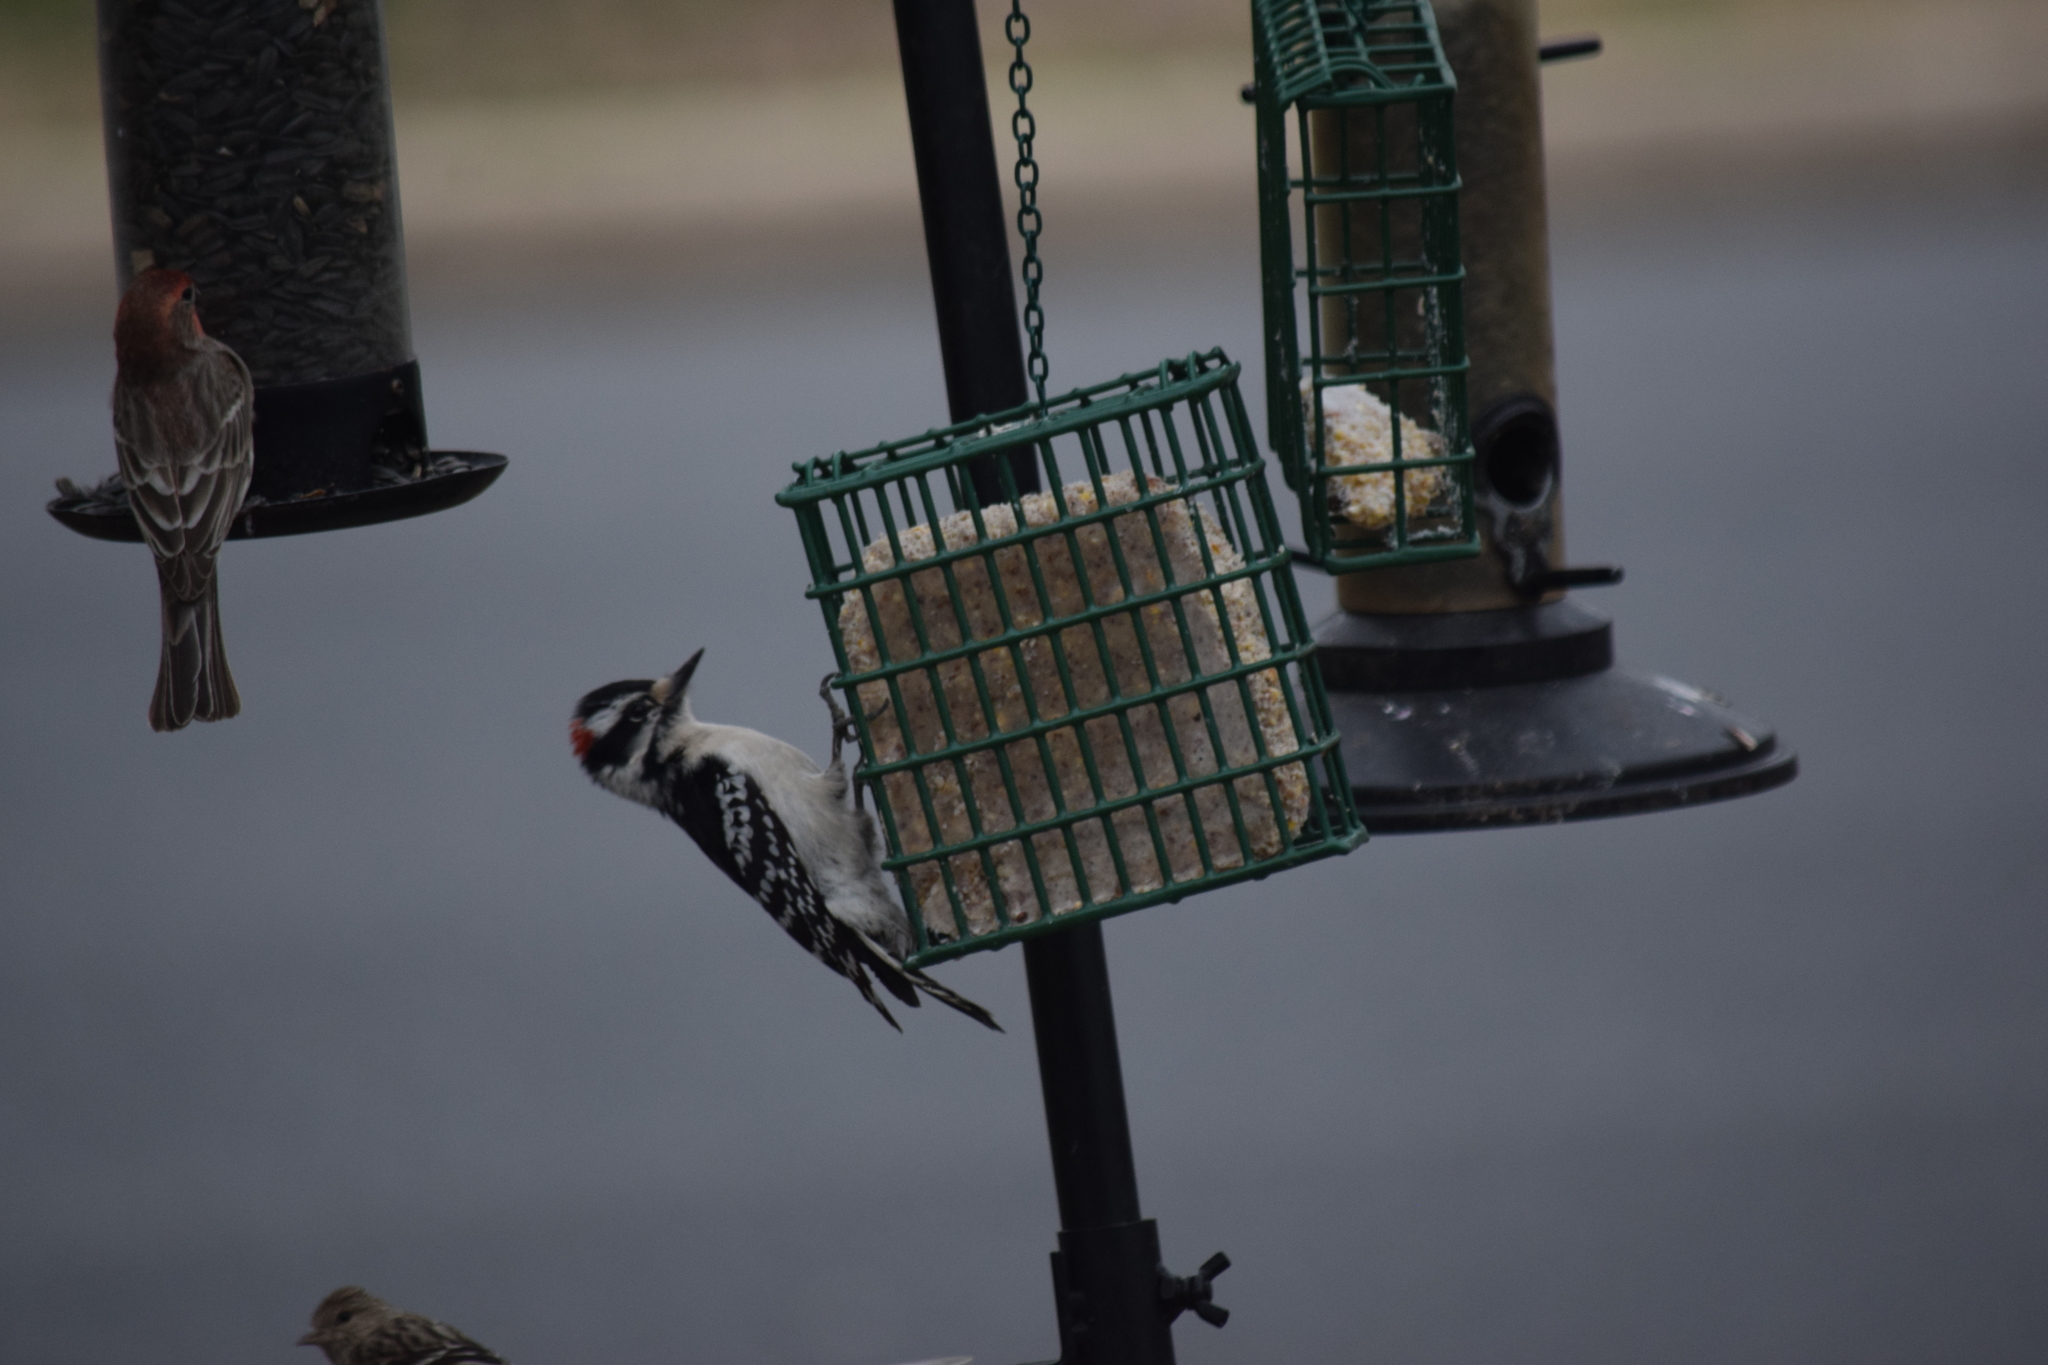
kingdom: Animalia
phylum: Chordata
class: Aves
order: Piciformes
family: Picidae
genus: Dryobates
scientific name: Dryobates pubescens
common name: Downy woodpecker
